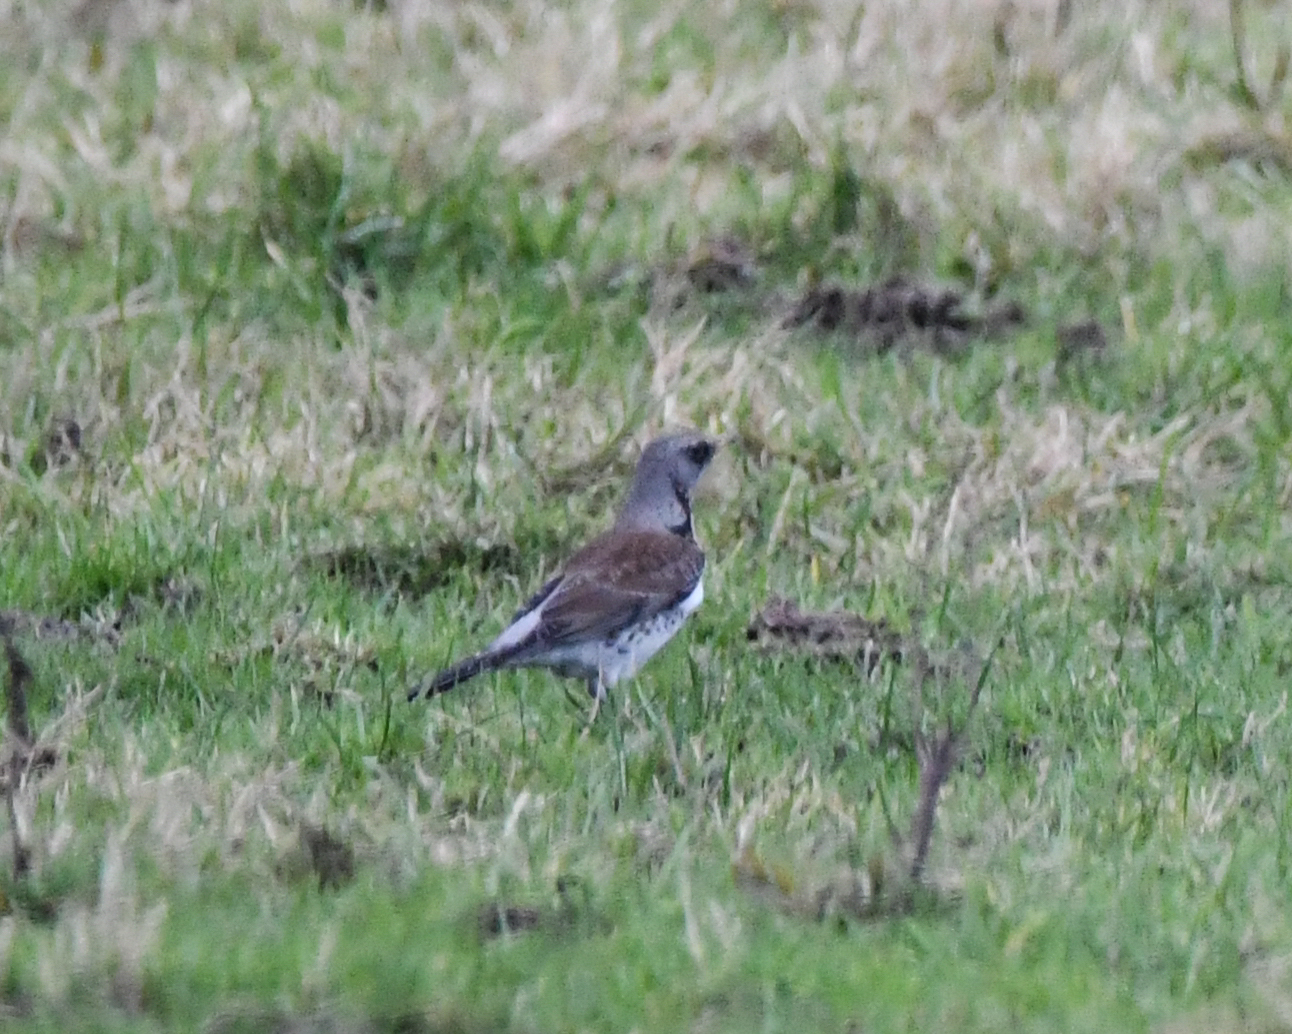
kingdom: Animalia
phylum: Chordata
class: Aves
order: Passeriformes
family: Turdidae
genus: Turdus
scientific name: Turdus pilaris
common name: Fieldfare
